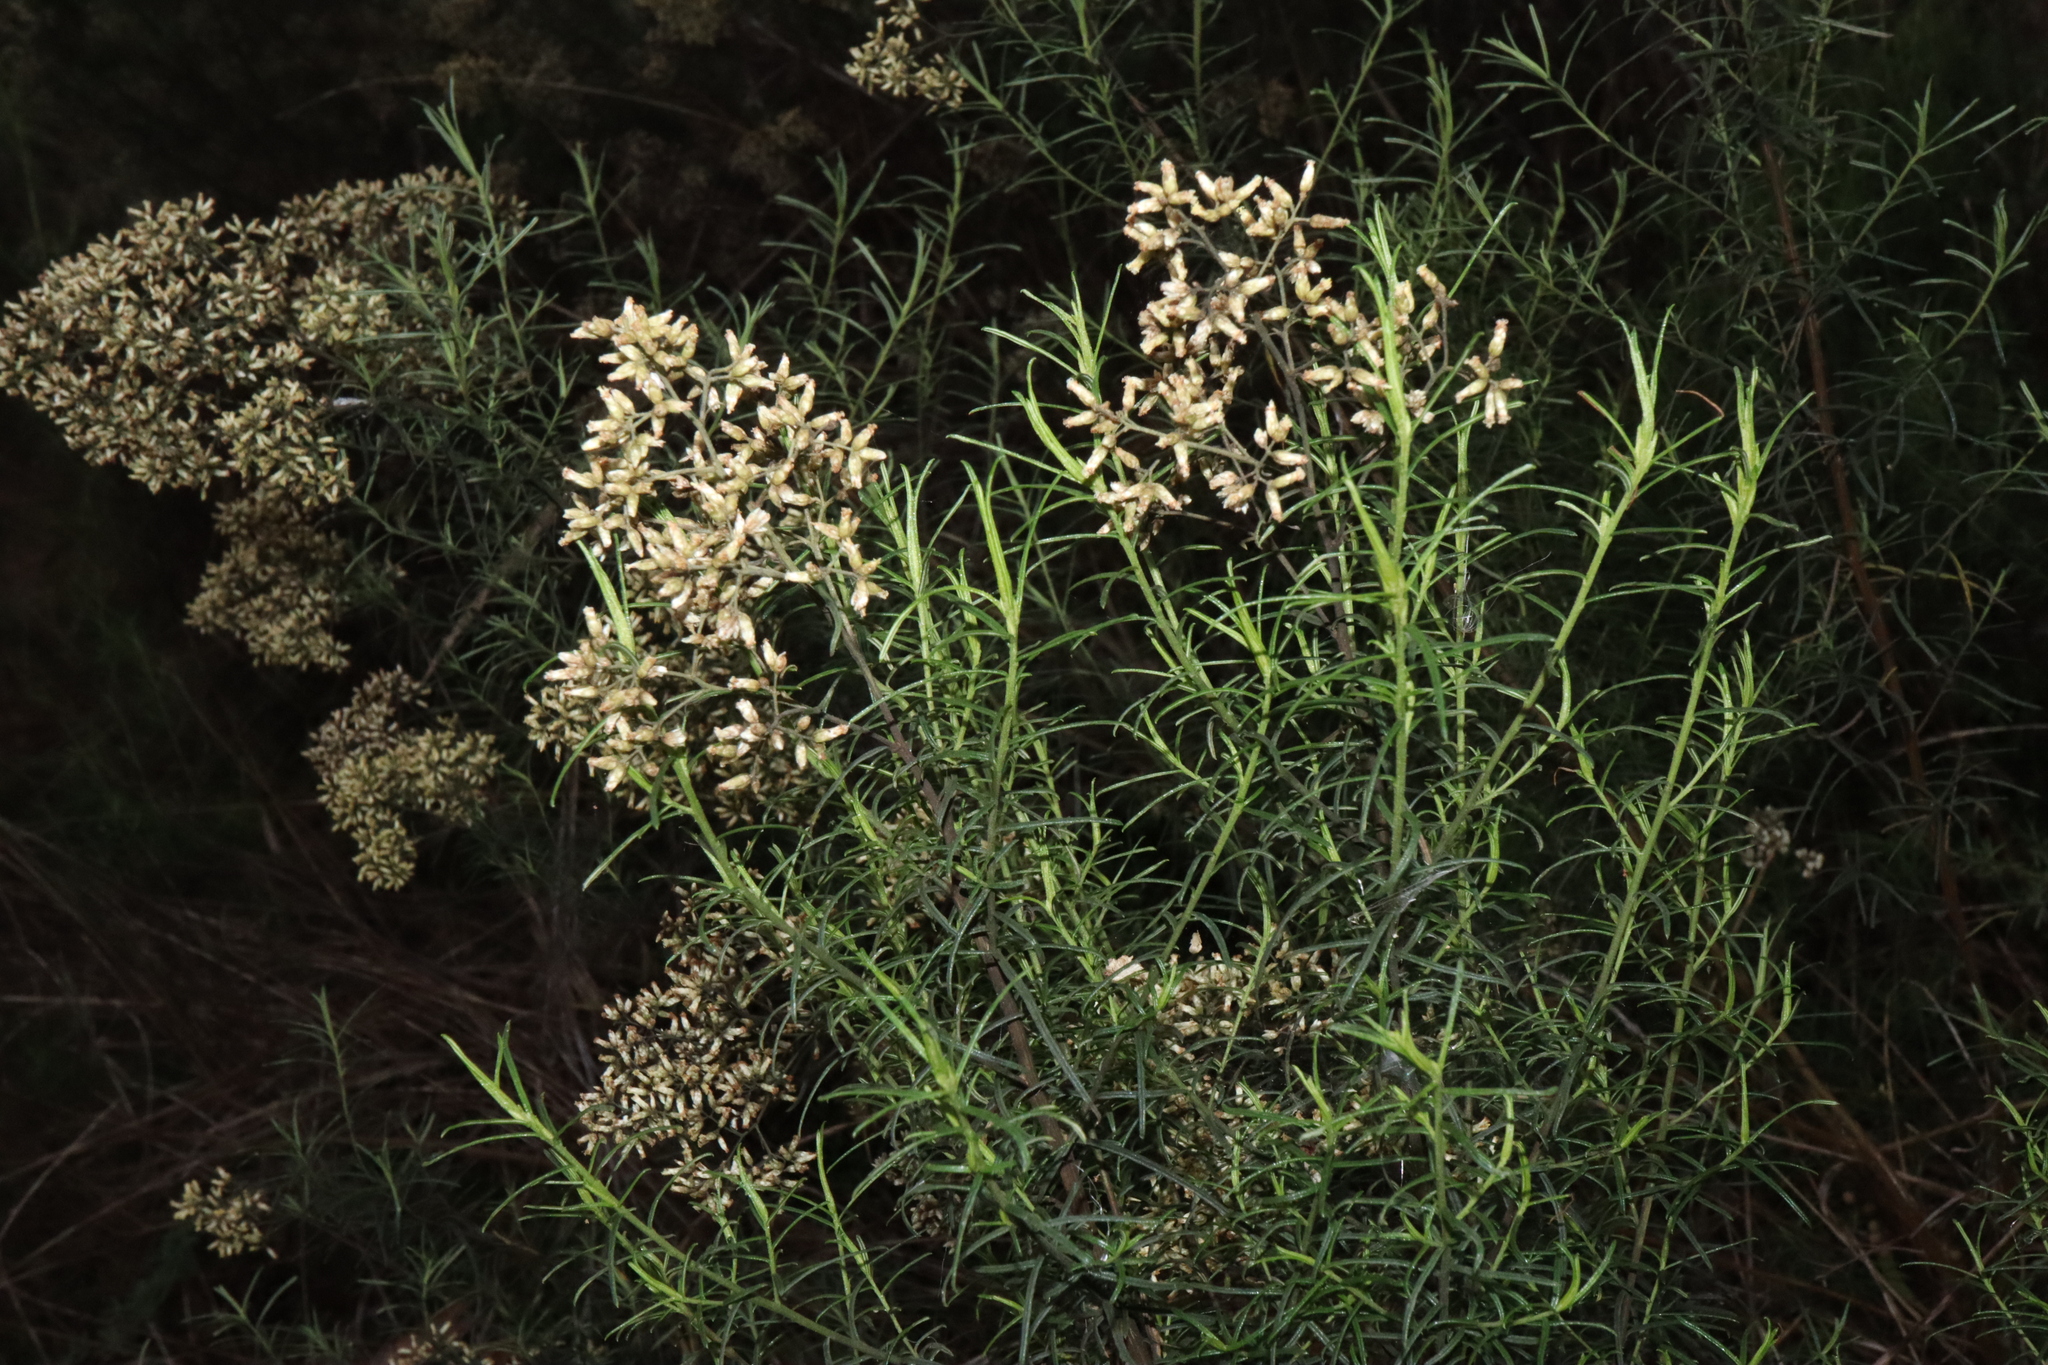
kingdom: Plantae
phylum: Tracheophyta
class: Magnoliopsida
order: Asterales
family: Asteraceae
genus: Cassinia
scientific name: Cassinia quinquefaria
